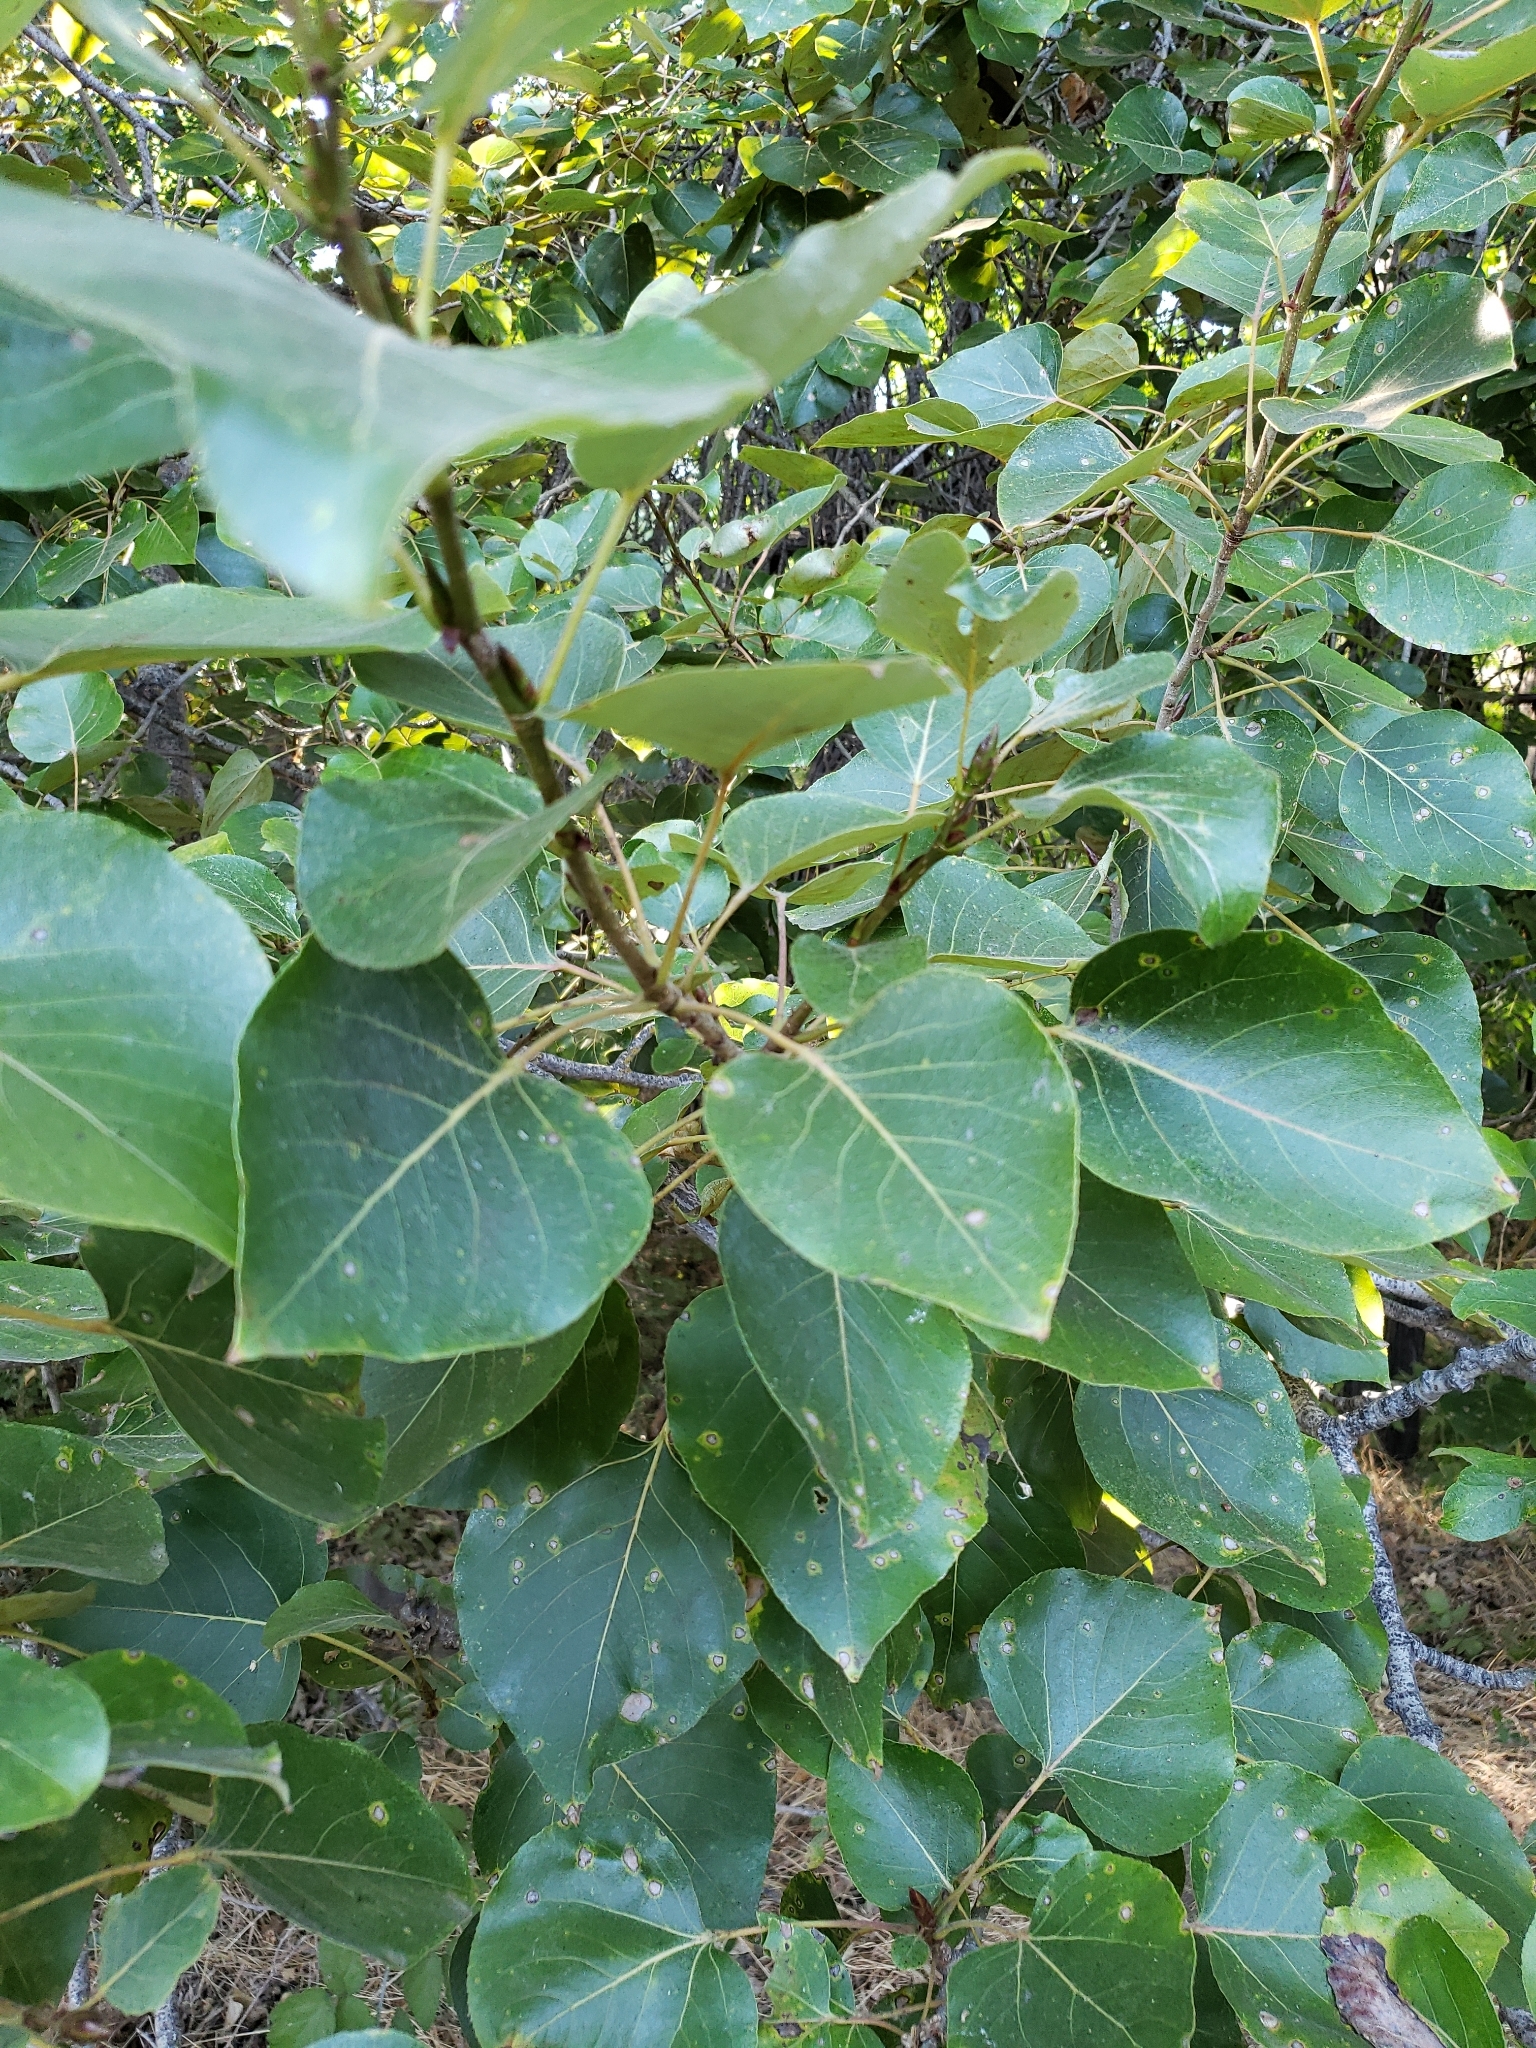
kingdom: Plantae
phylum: Tracheophyta
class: Magnoliopsida
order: Malpighiales
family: Salicaceae
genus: Populus
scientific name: Populus trichocarpa
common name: Black cottonwood
